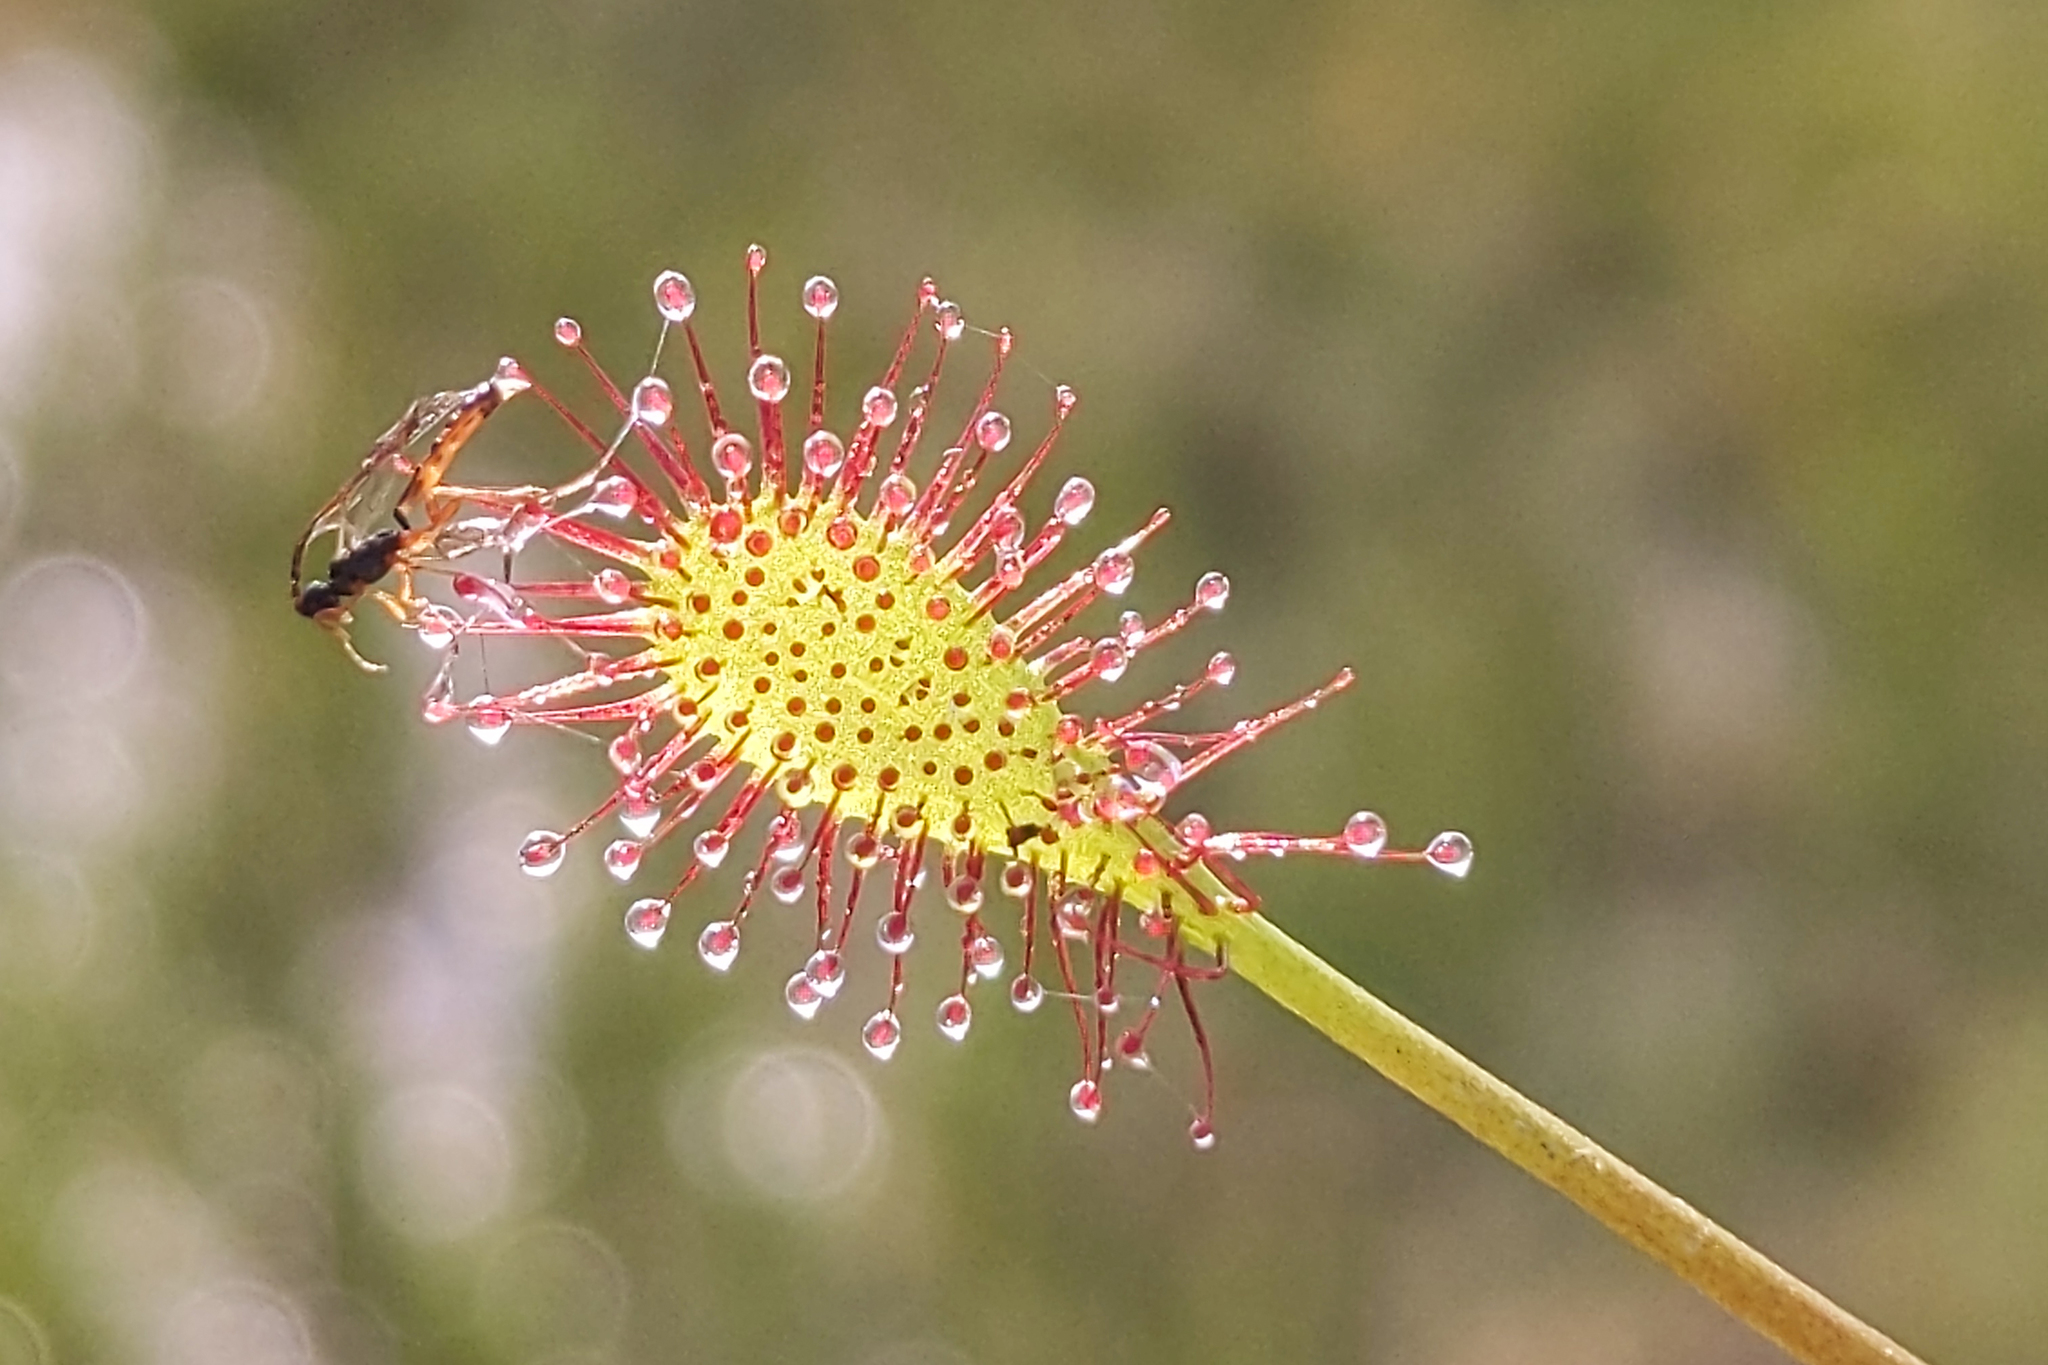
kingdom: Plantae
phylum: Tracheophyta
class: Magnoliopsida
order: Caryophyllales
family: Droseraceae
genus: Drosera
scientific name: Drosera intermedia
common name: Oblong-leaved sundew
